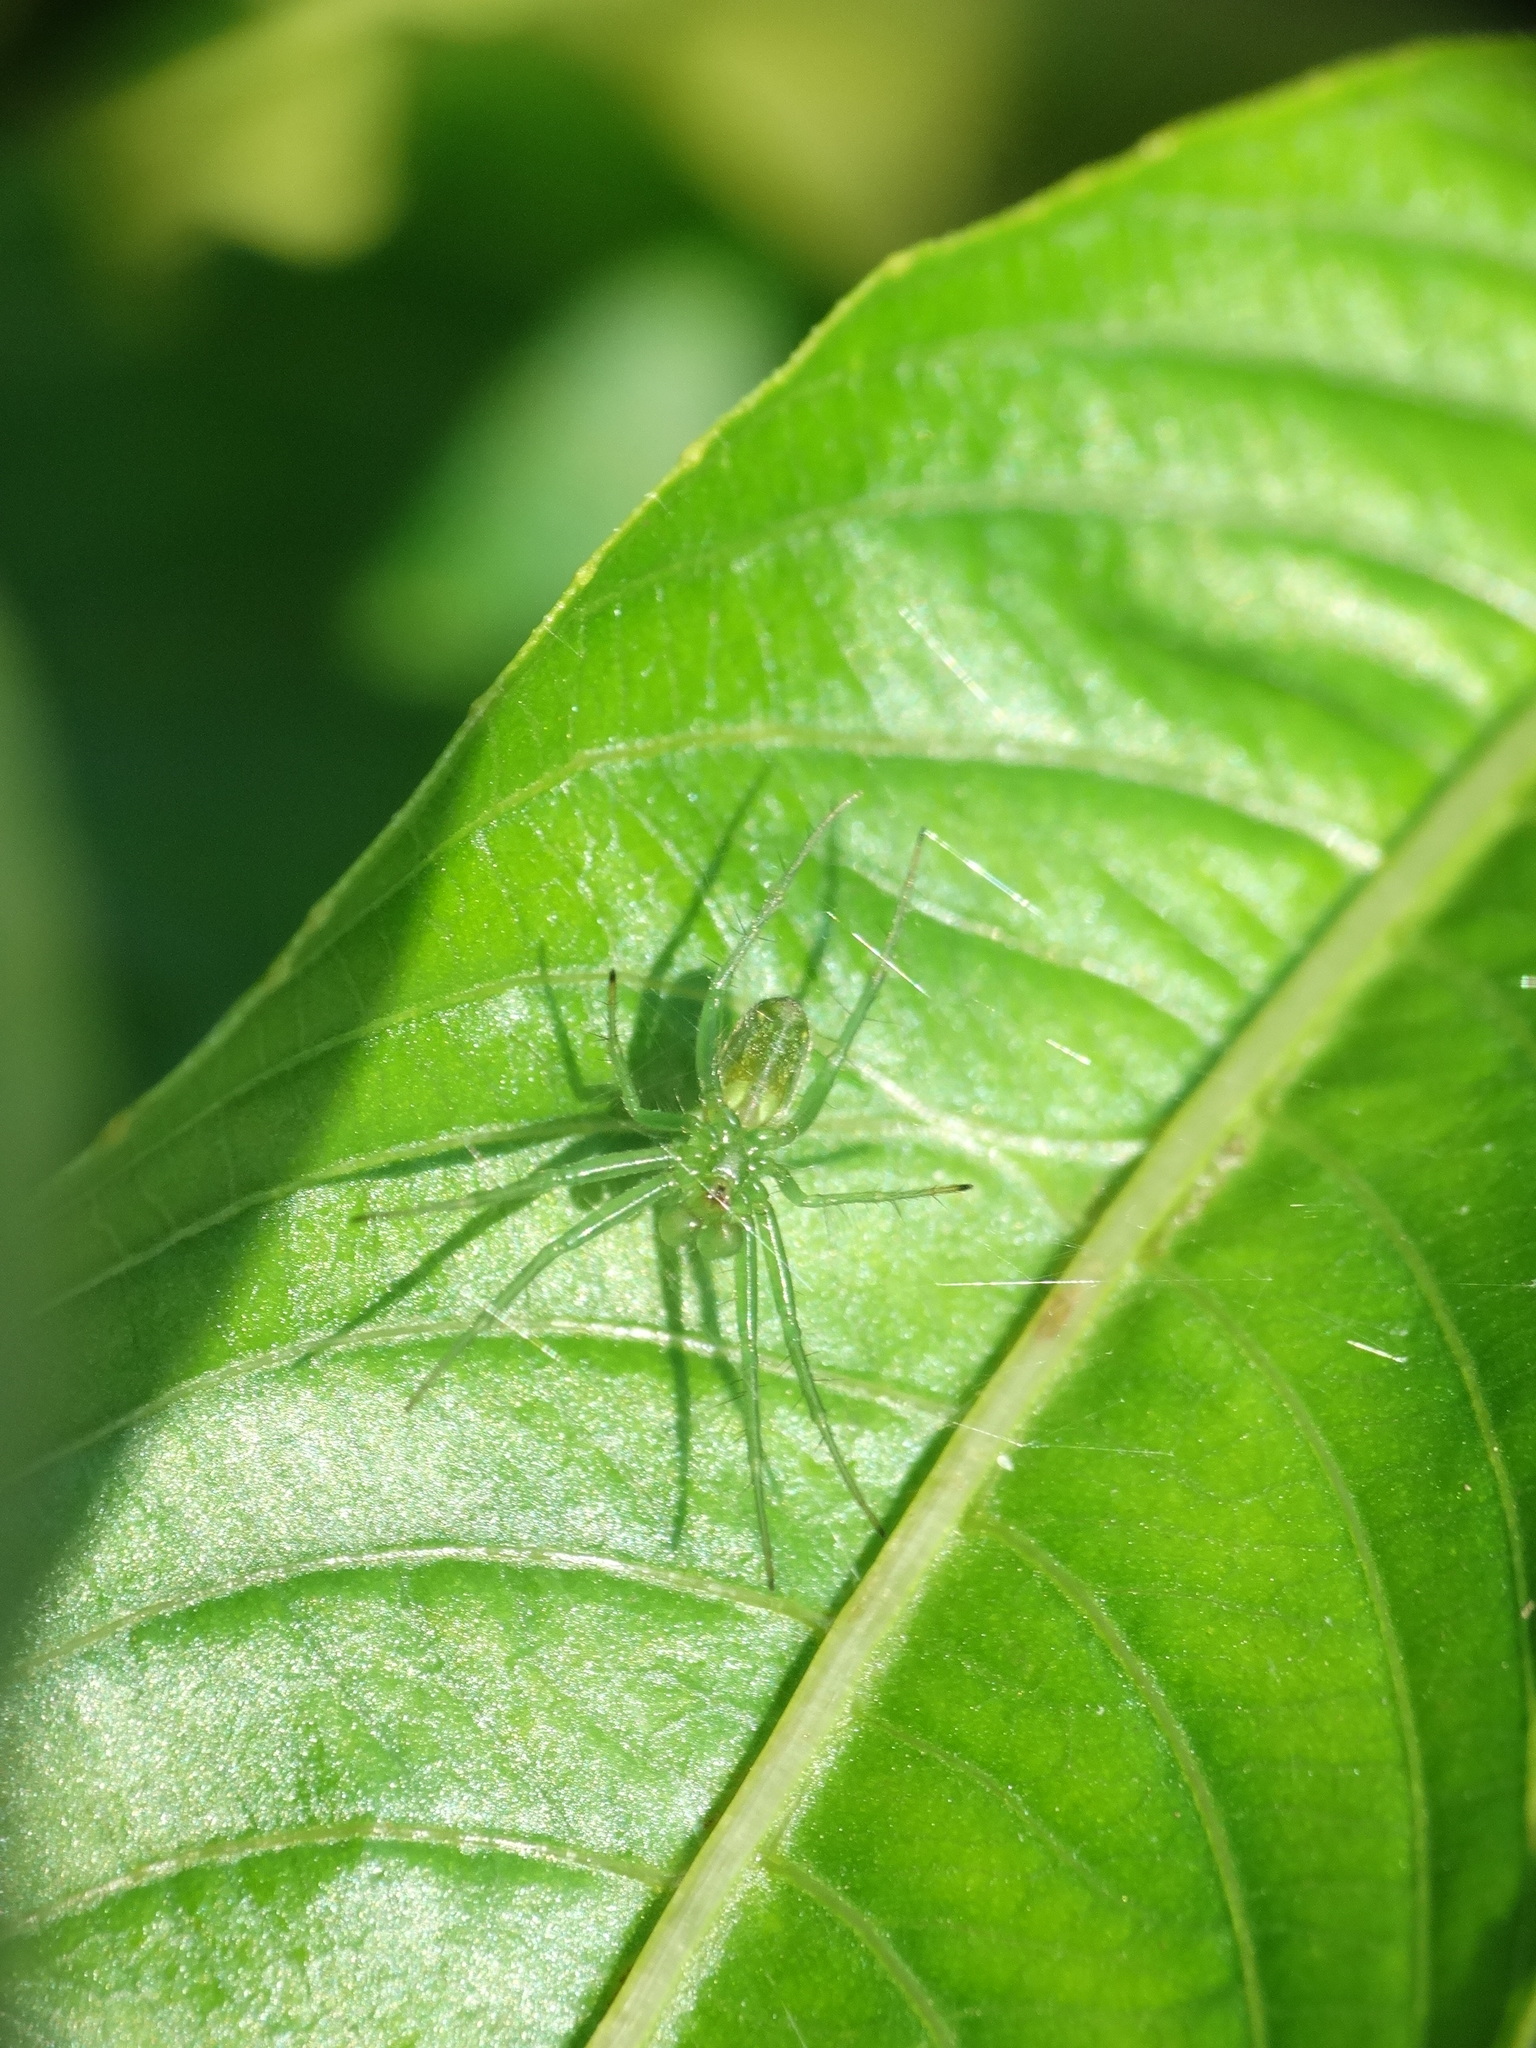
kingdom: Animalia
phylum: Arthropoda
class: Arachnida
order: Araneae
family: Araneidae
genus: Mangora
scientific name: Mangora lactea
